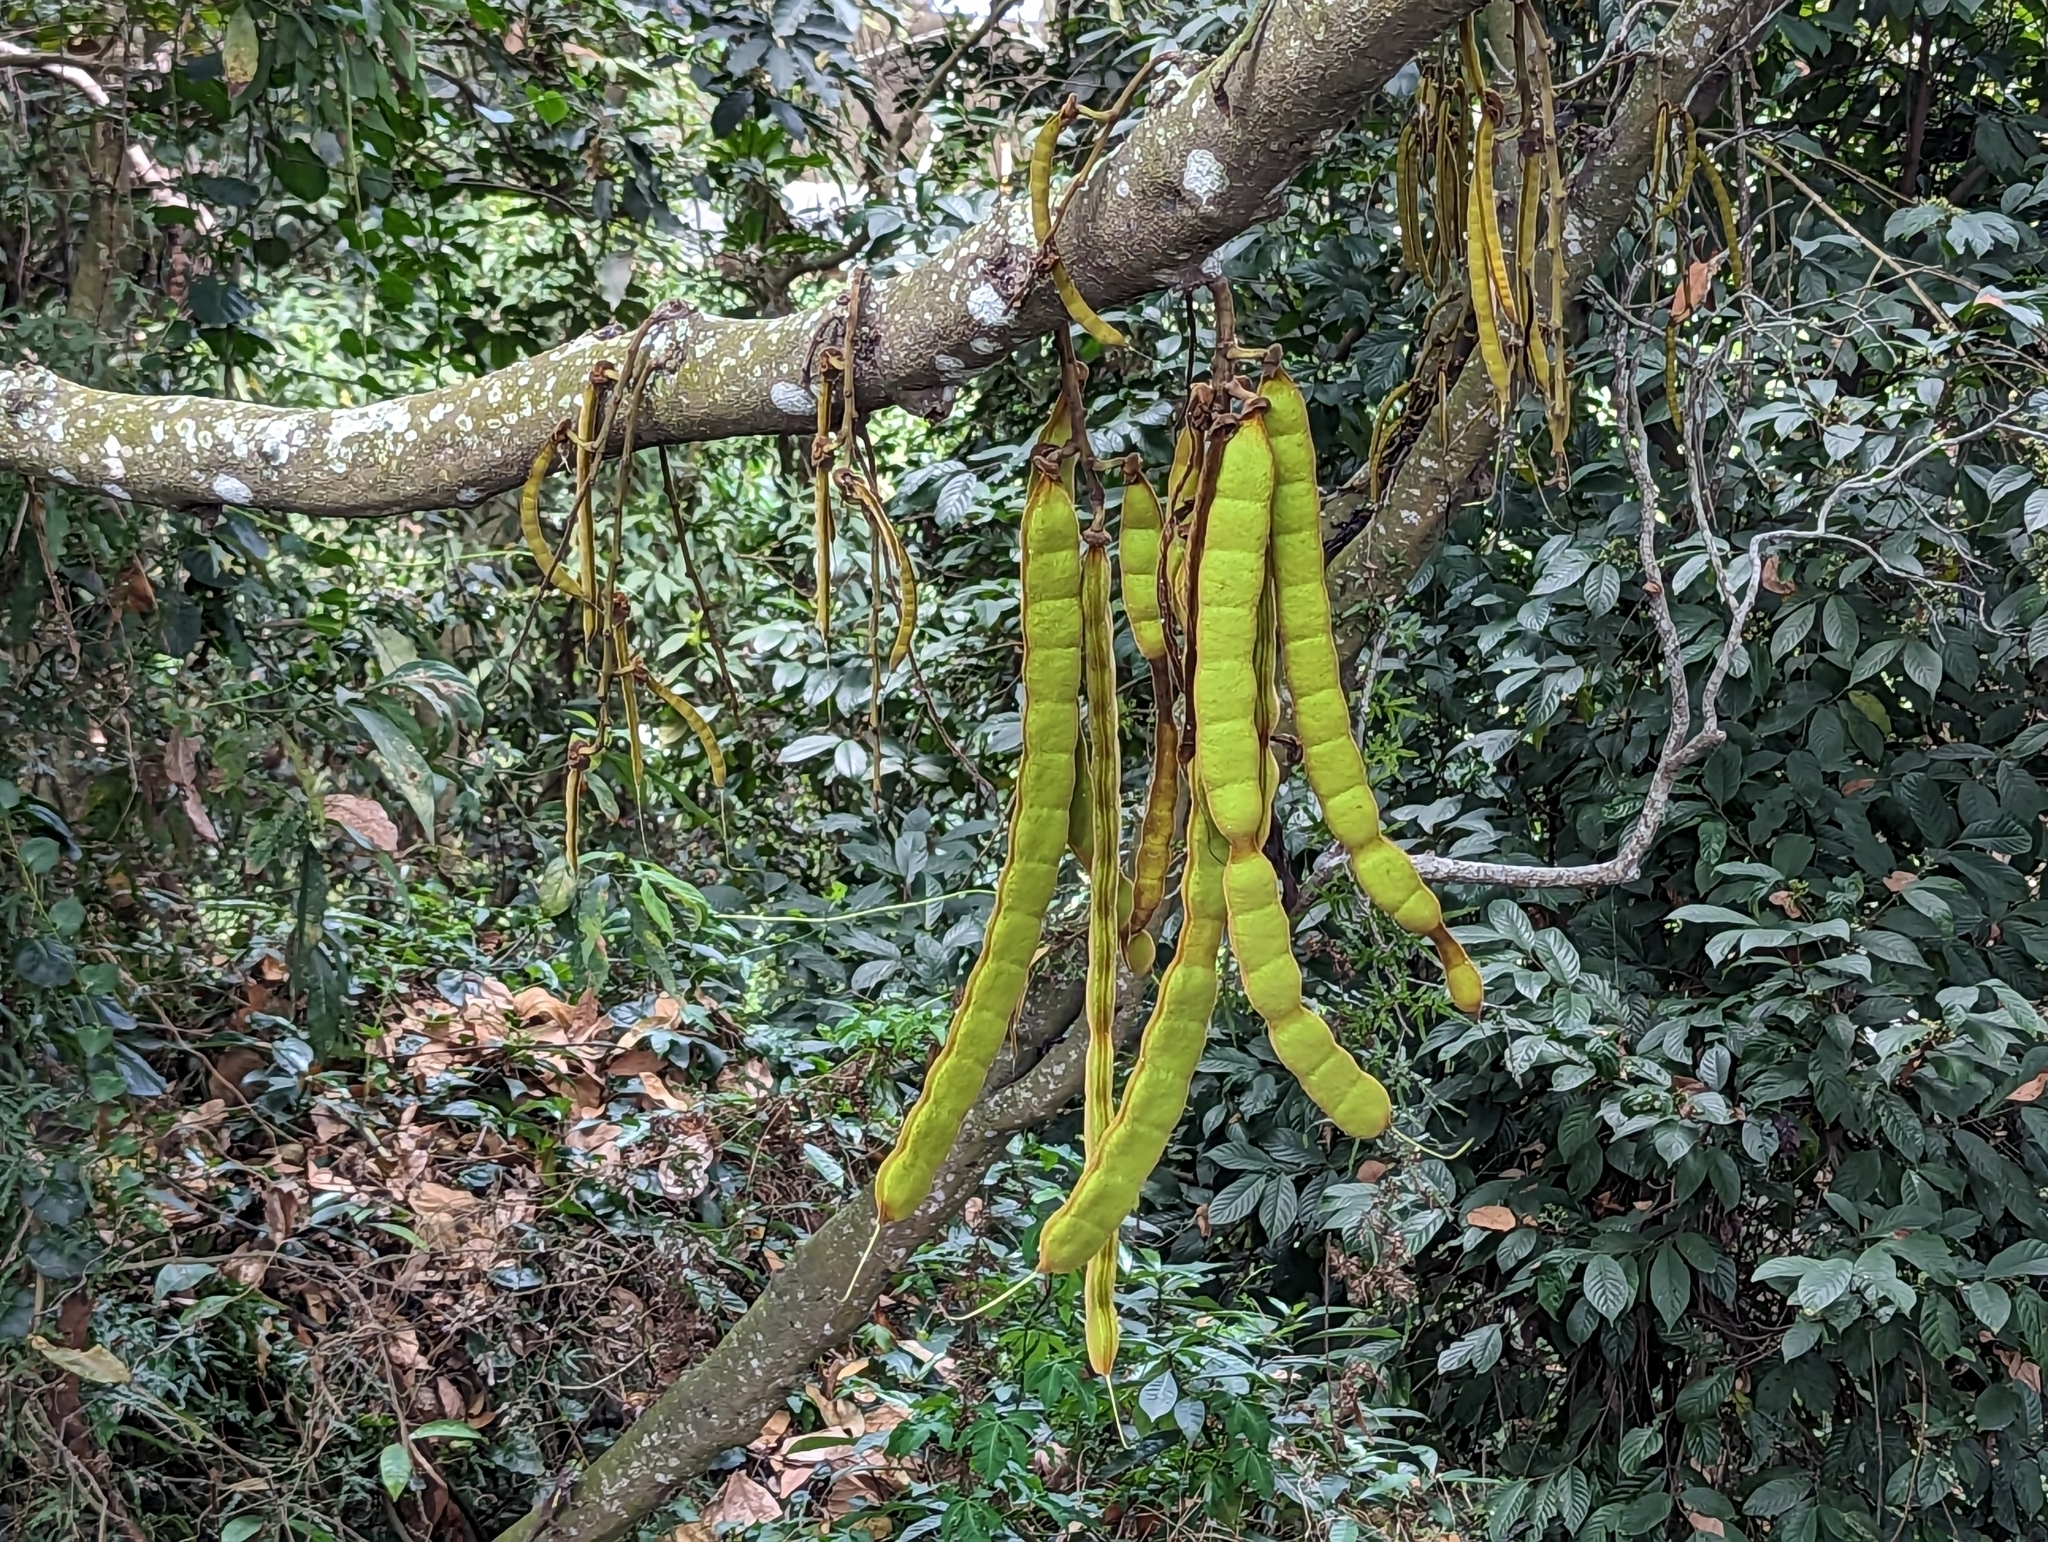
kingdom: Plantae
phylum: Tracheophyta
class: Magnoliopsida
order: Fabales
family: Fabaceae
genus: Mucuna
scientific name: Mucuna macrocarpa
